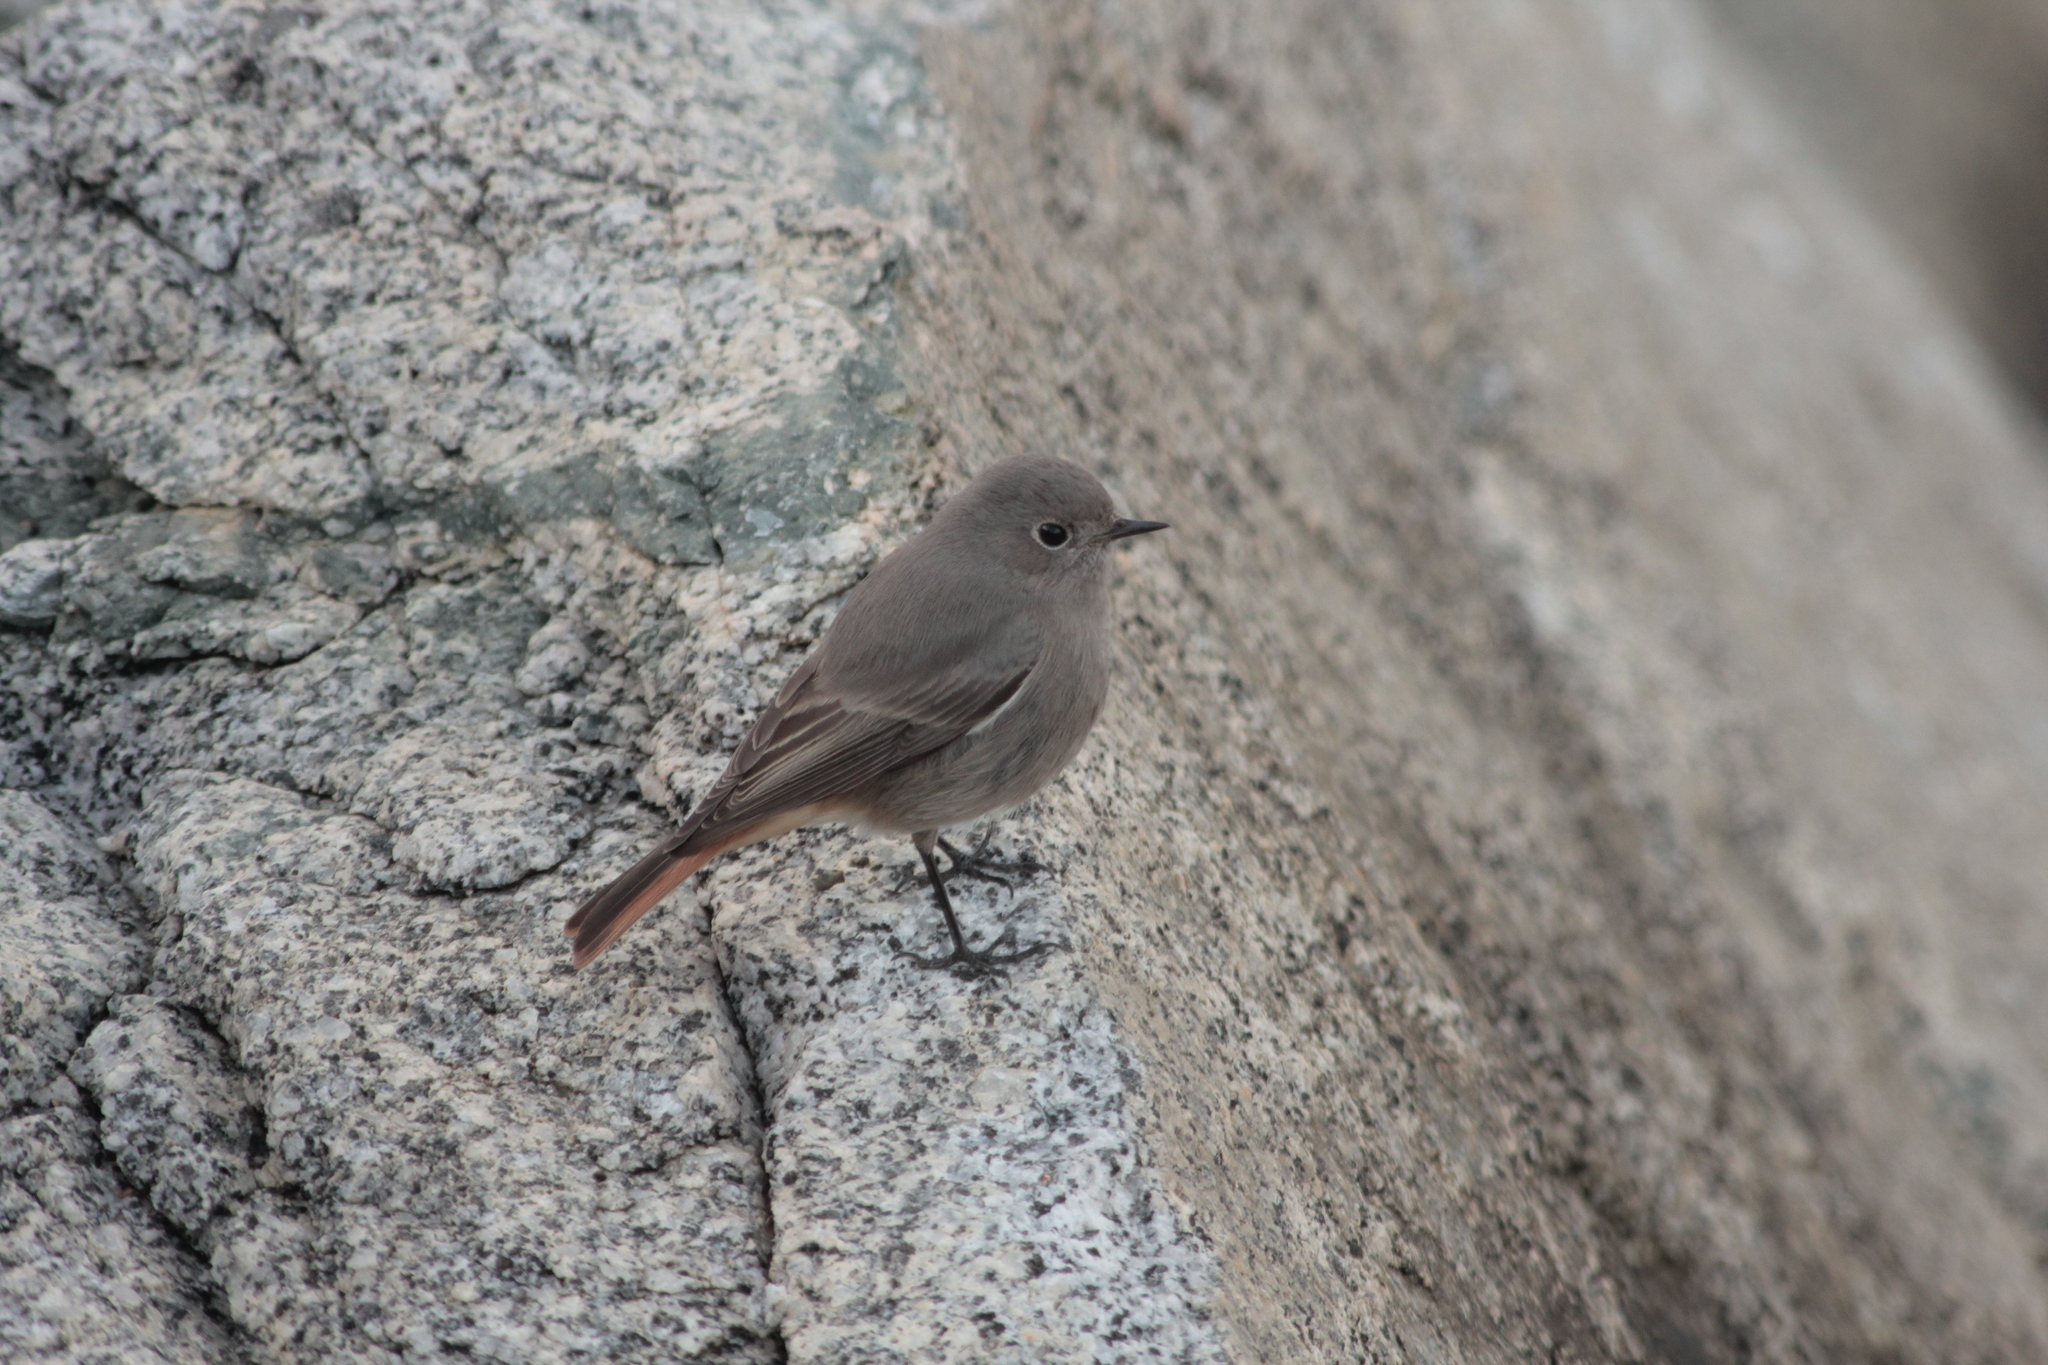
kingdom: Animalia
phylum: Chordata
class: Aves
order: Passeriformes
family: Muscicapidae
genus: Phoenicurus
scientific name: Phoenicurus ochruros
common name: Black redstart
